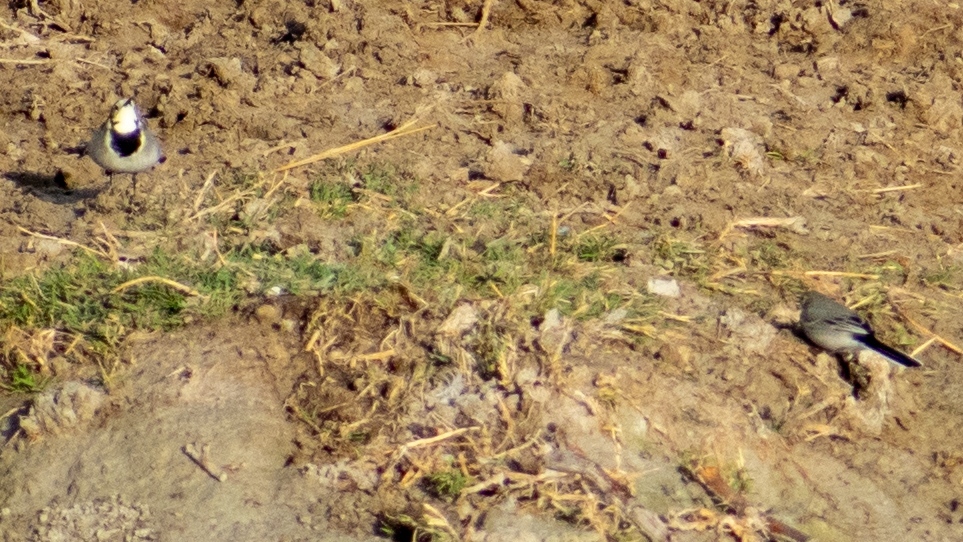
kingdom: Animalia
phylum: Chordata
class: Aves
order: Passeriformes
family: Motacillidae
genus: Motacilla
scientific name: Motacilla alba
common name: White wagtail
